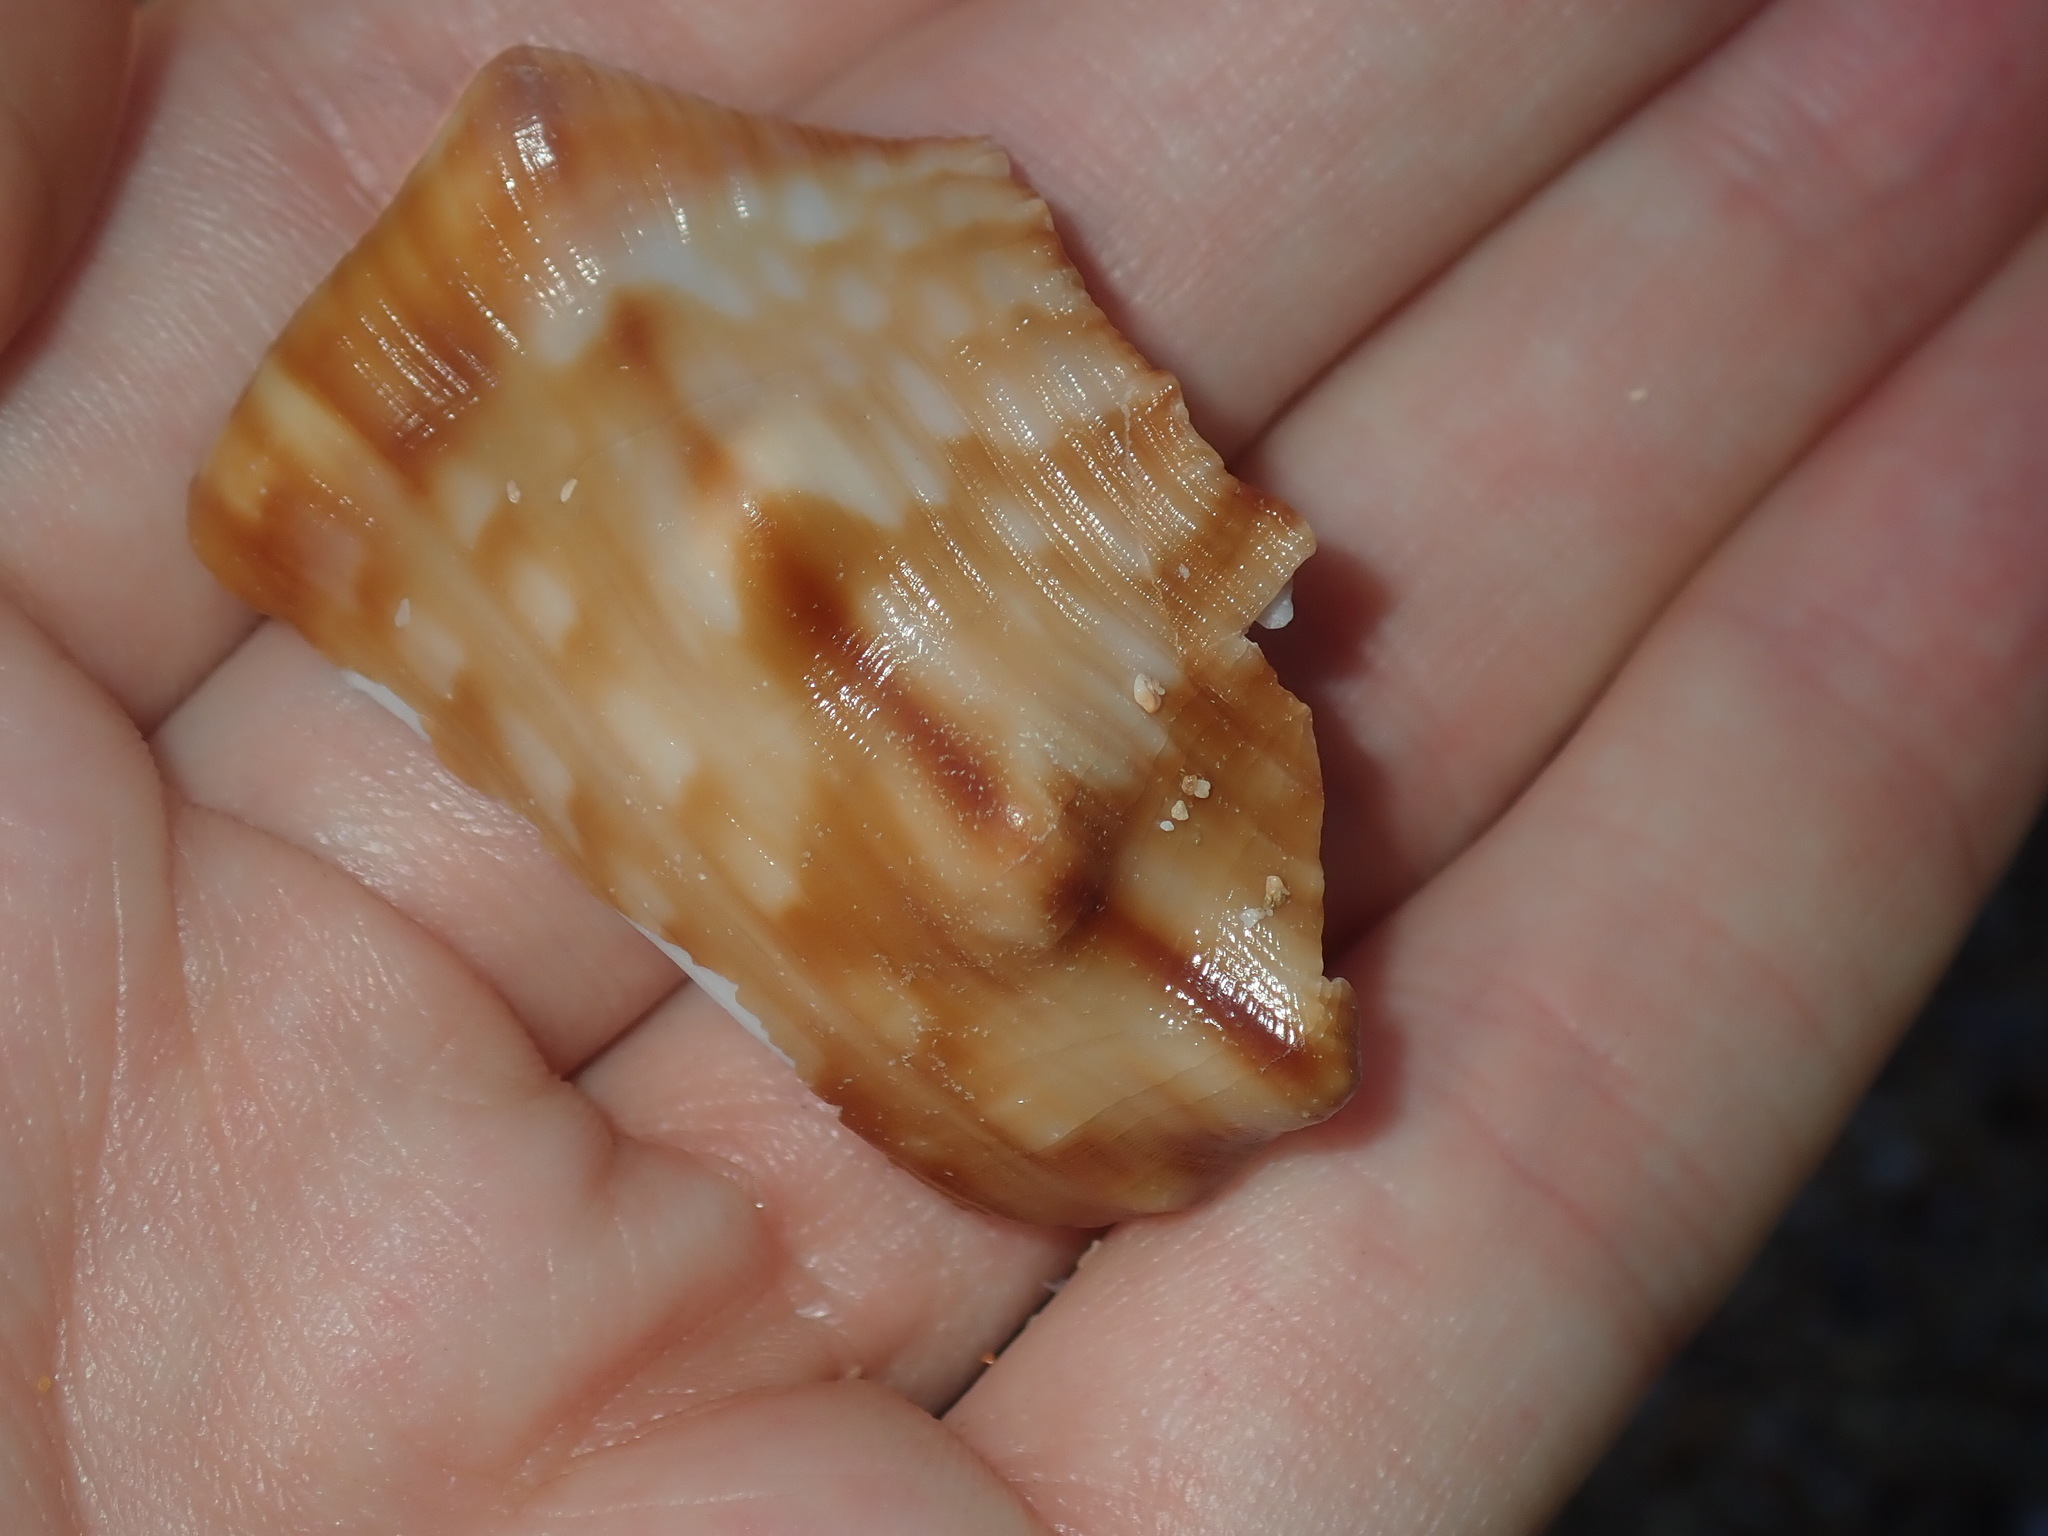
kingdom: Animalia
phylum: Mollusca
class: Gastropoda
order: Littorinimorpha
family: Charoniidae
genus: Charonia
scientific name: Charonia lampas
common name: Knobbed triton
